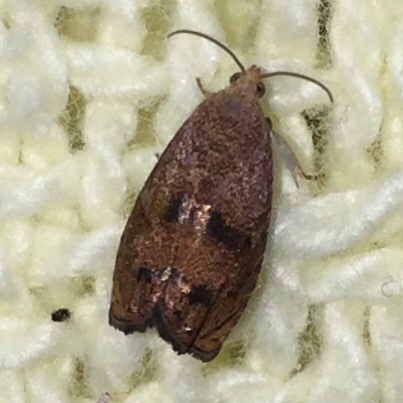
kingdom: Animalia
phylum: Arthropoda
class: Insecta
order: Lepidoptera
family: Tortricidae
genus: Cydia
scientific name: Cydia latiferreana
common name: Filbertworm moth
